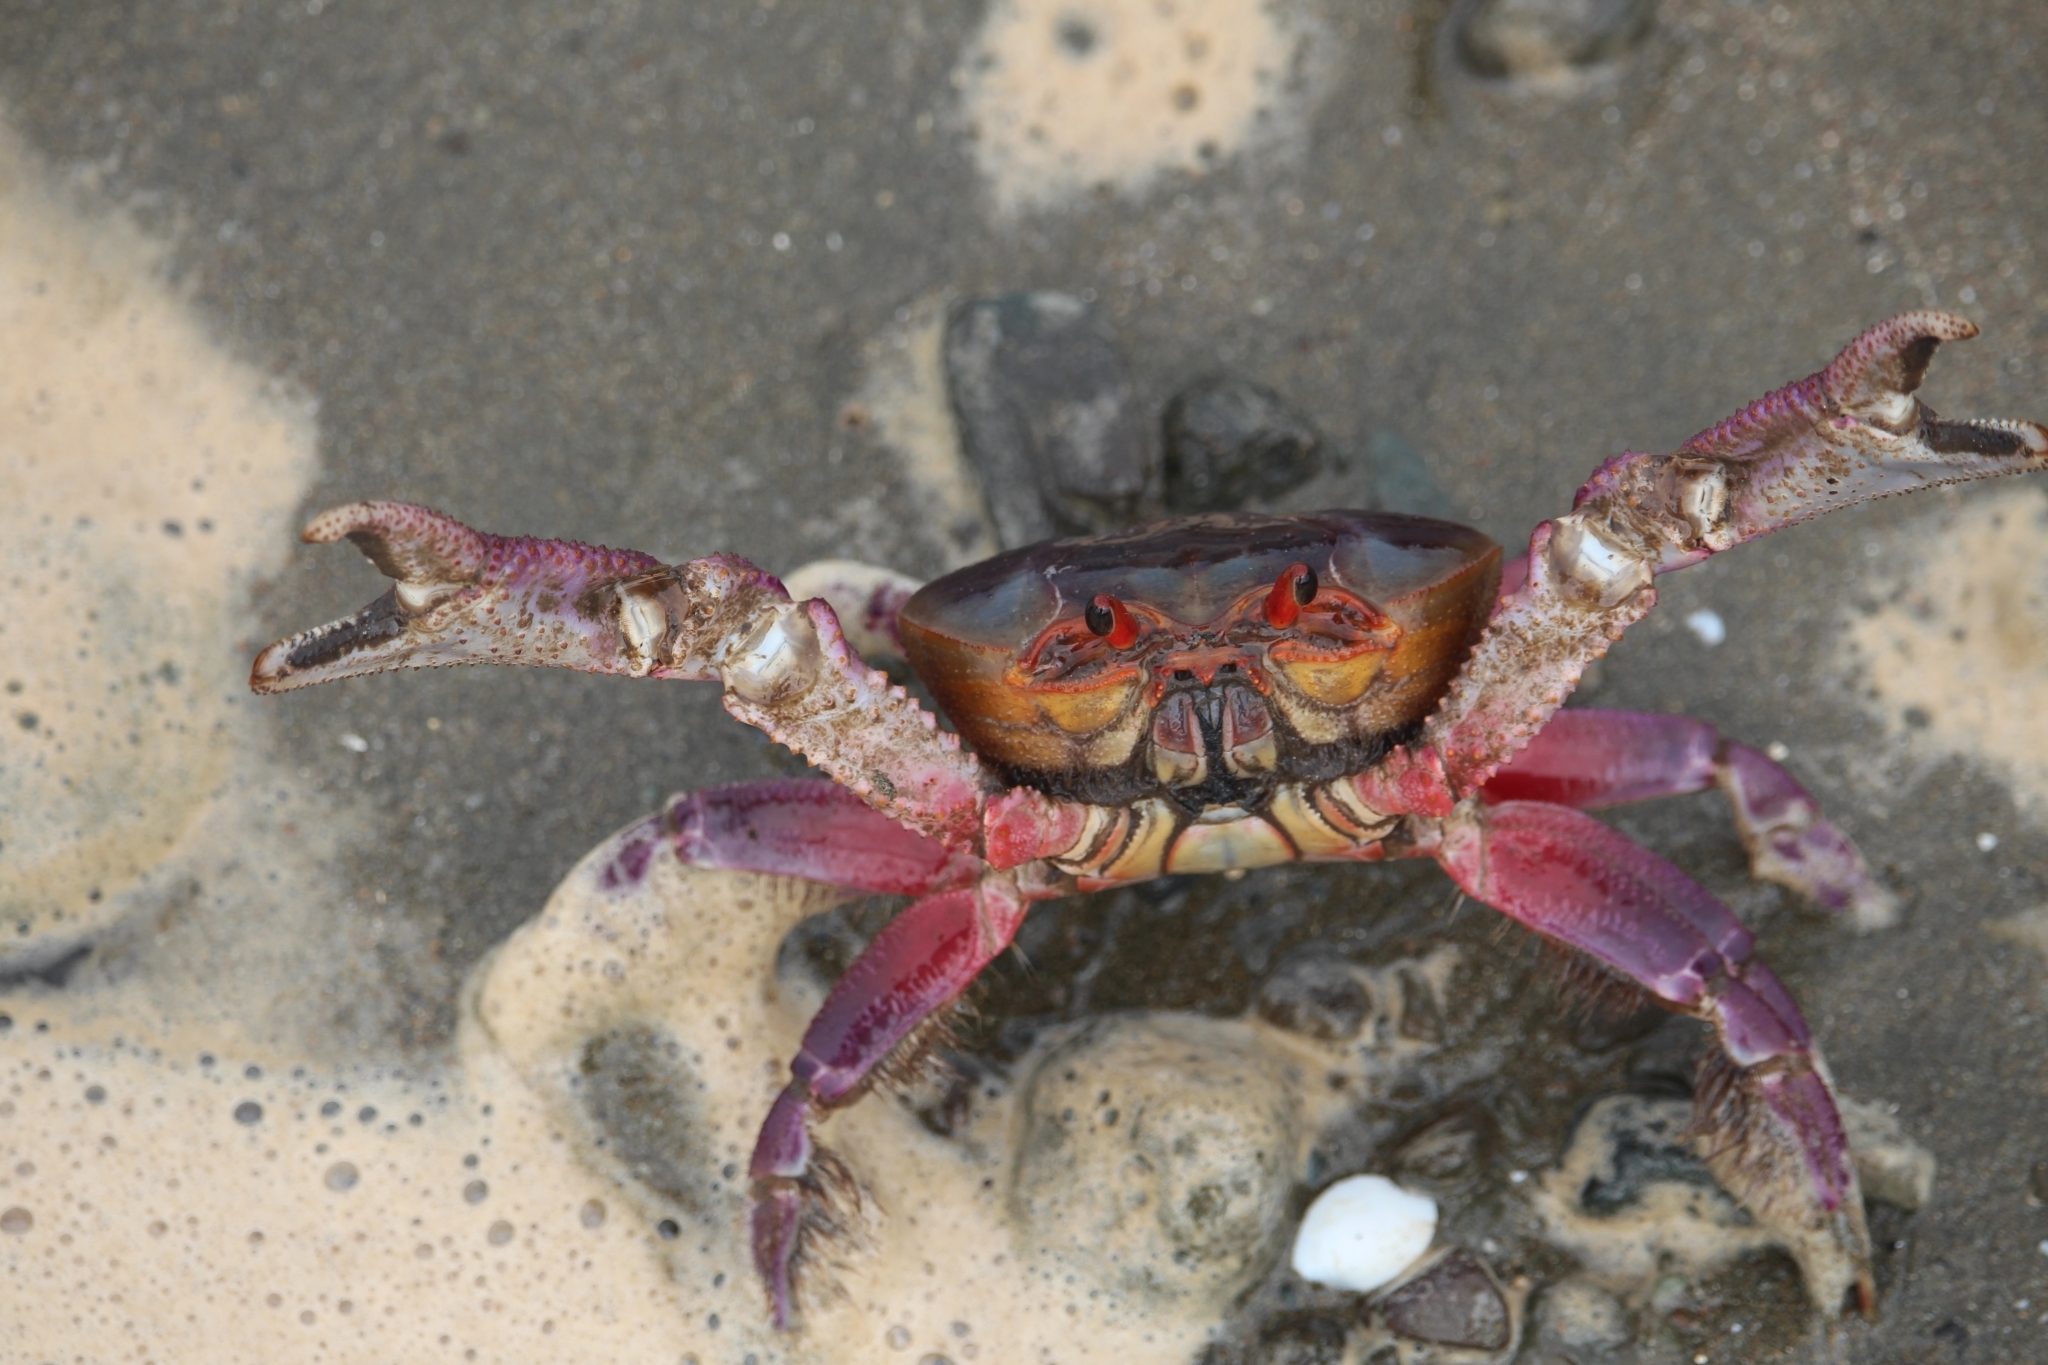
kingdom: Animalia
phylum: Arthropoda
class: Malacostraca
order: Decapoda
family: Ocypodidae
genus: Ucides
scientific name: Ucides occidentalis
